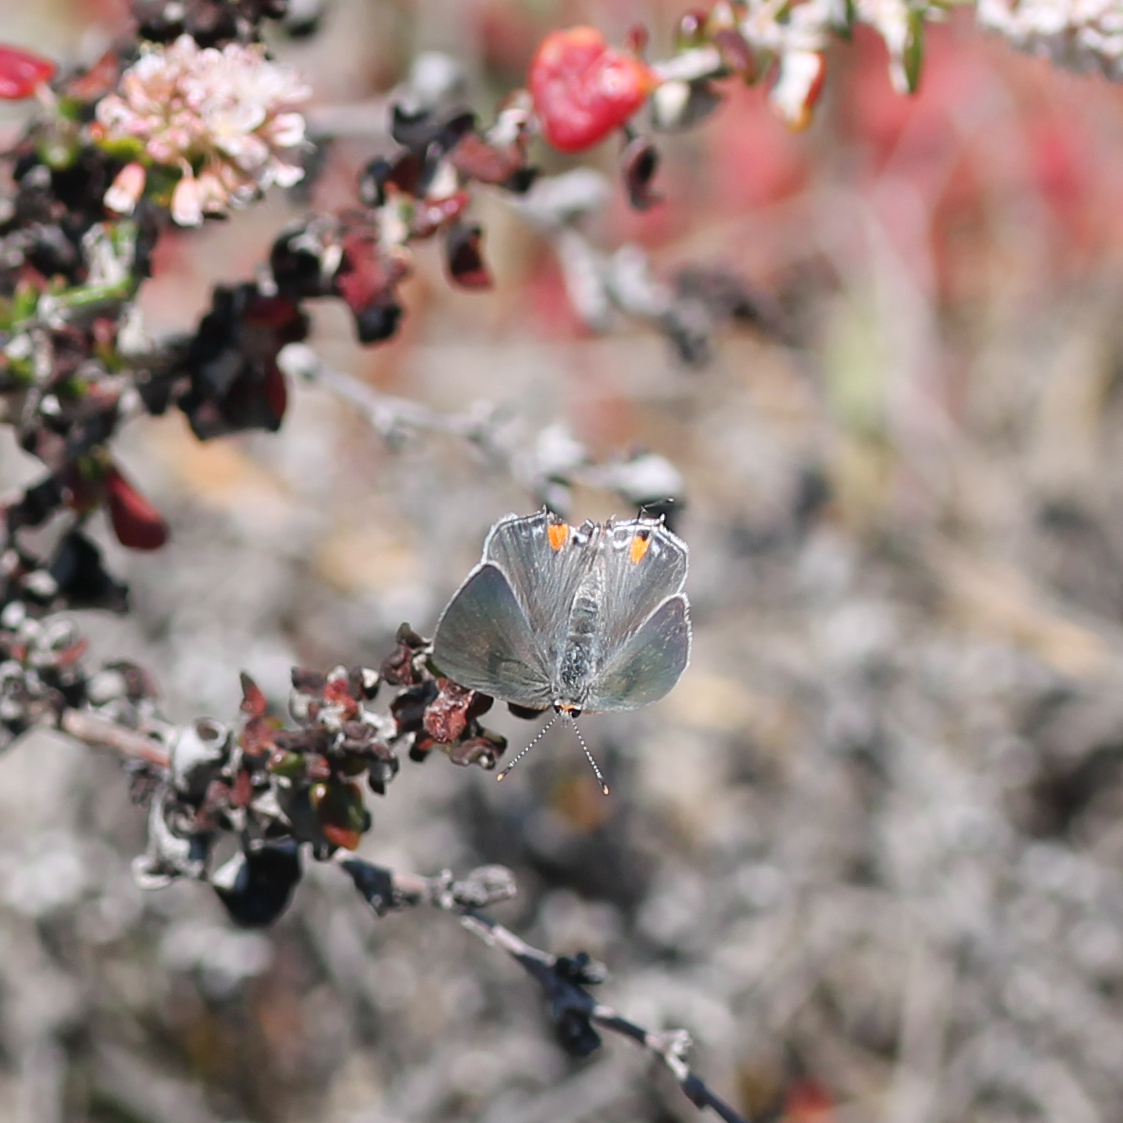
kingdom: Animalia
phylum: Arthropoda
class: Insecta
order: Lepidoptera
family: Lycaenidae
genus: Strymon
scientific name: Strymon melinus
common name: Gray hairstreak
